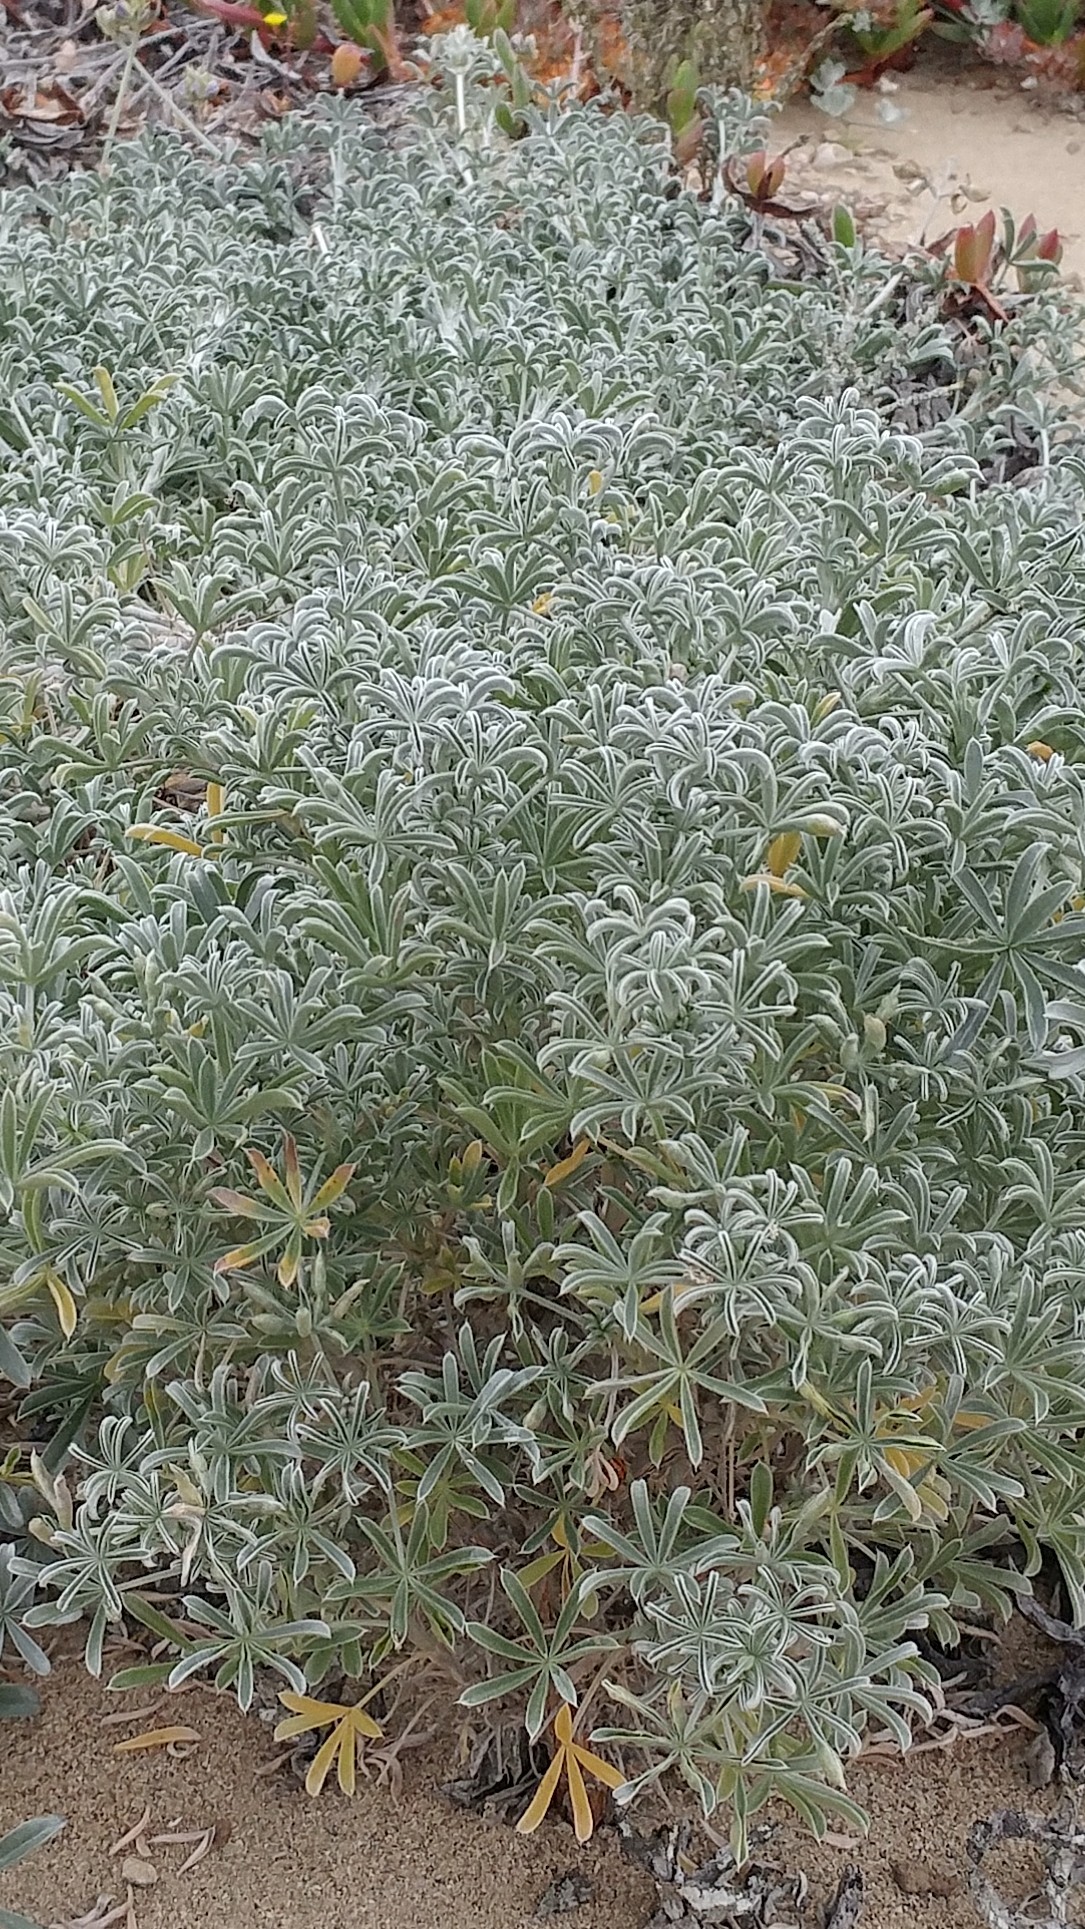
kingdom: Plantae
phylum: Tracheophyta
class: Magnoliopsida
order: Fabales
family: Fabaceae
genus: Lupinus
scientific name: Lupinus albifrons
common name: Foothill lupine
